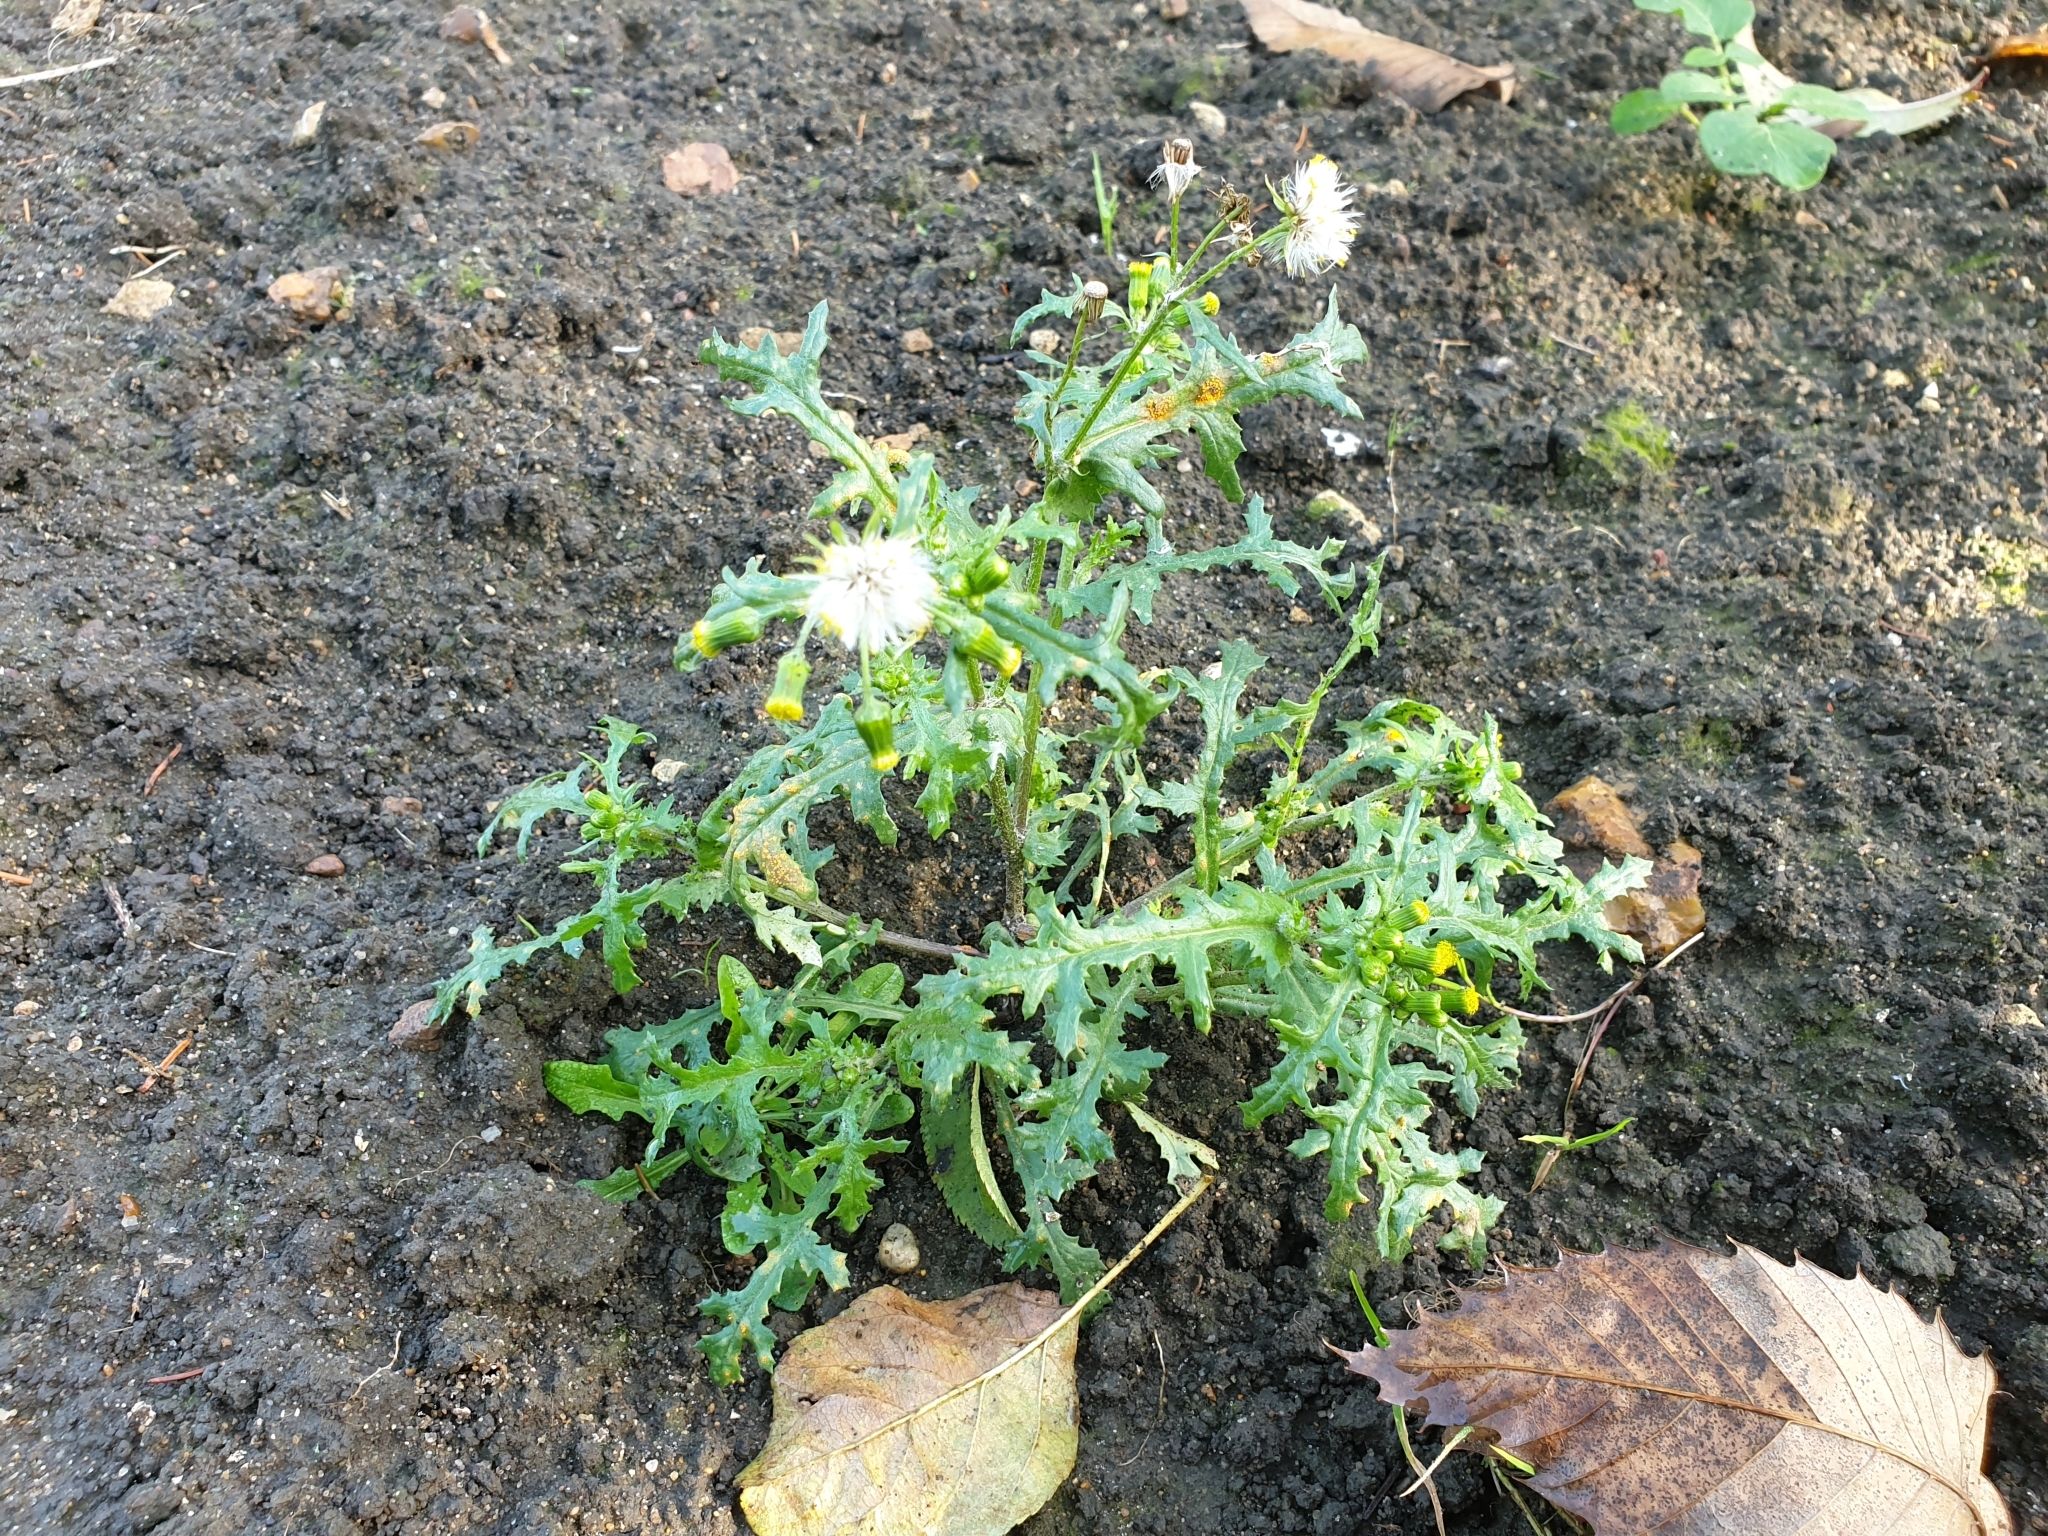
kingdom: Plantae
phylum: Tracheophyta
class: Magnoliopsida
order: Asterales
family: Asteraceae
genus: Senecio
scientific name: Senecio vulgaris
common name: Old-man-in-the-spring
